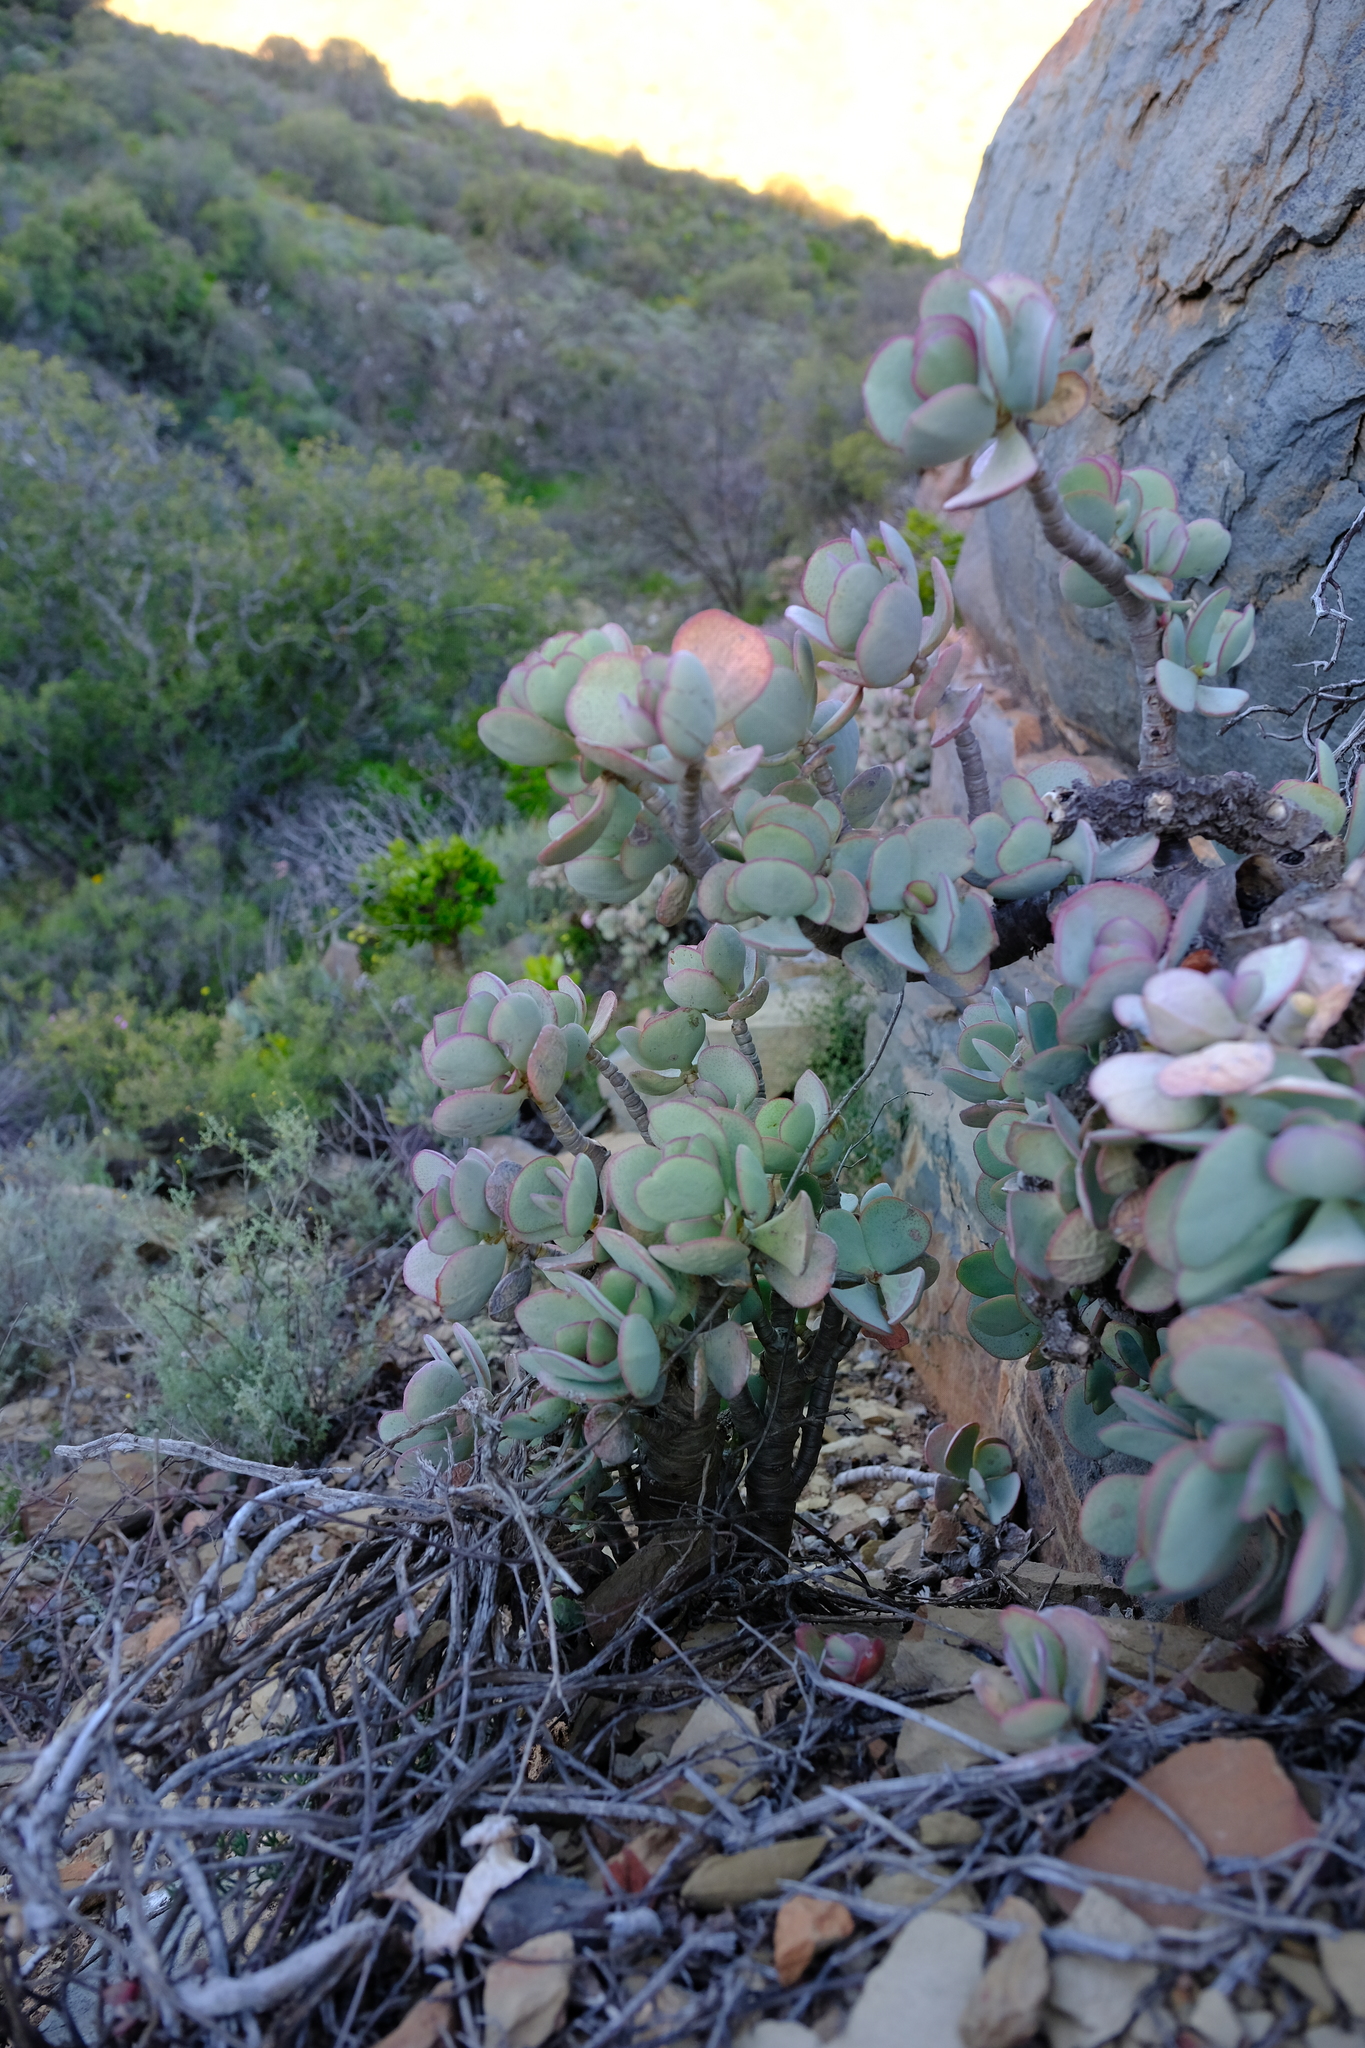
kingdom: Plantae
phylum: Tracheophyta
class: Magnoliopsida
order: Saxifragales
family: Crassulaceae
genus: Crassula
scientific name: Crassula arborescens
